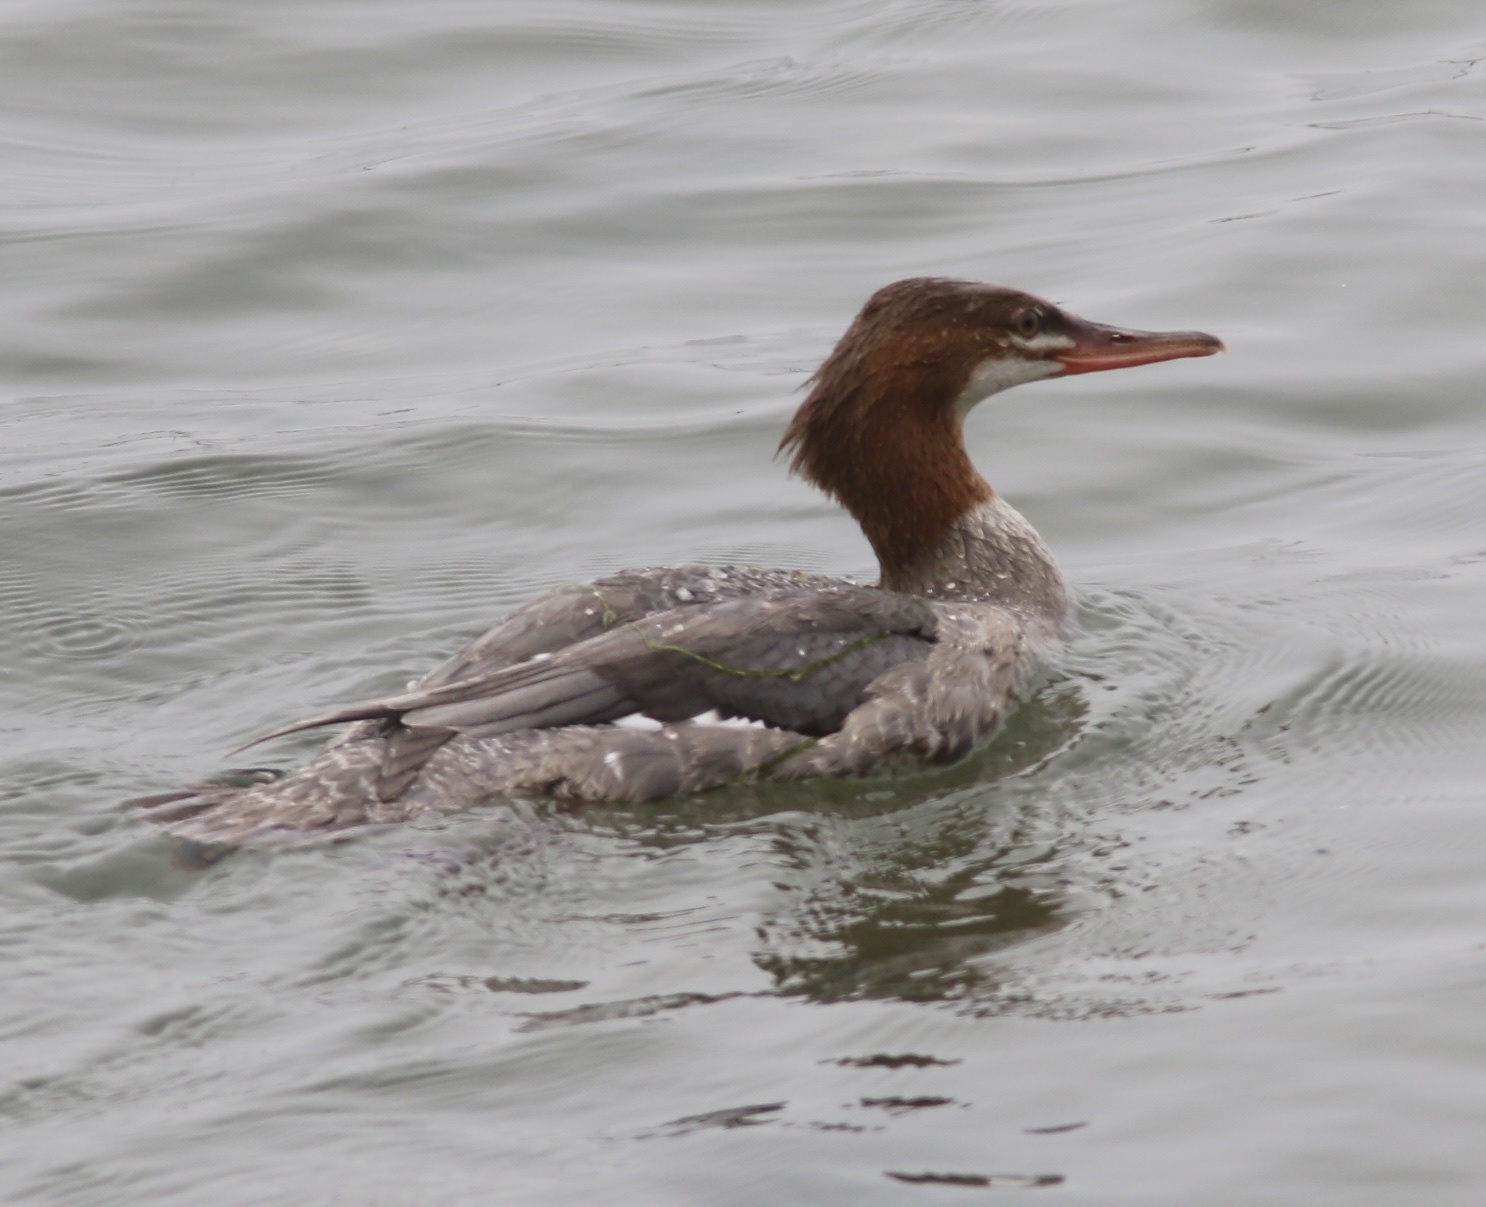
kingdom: Animalia
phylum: Chordata
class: Aves
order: Anseriformes
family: Anatidae
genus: Mergus
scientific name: Mergus merganser
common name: Common merganser
